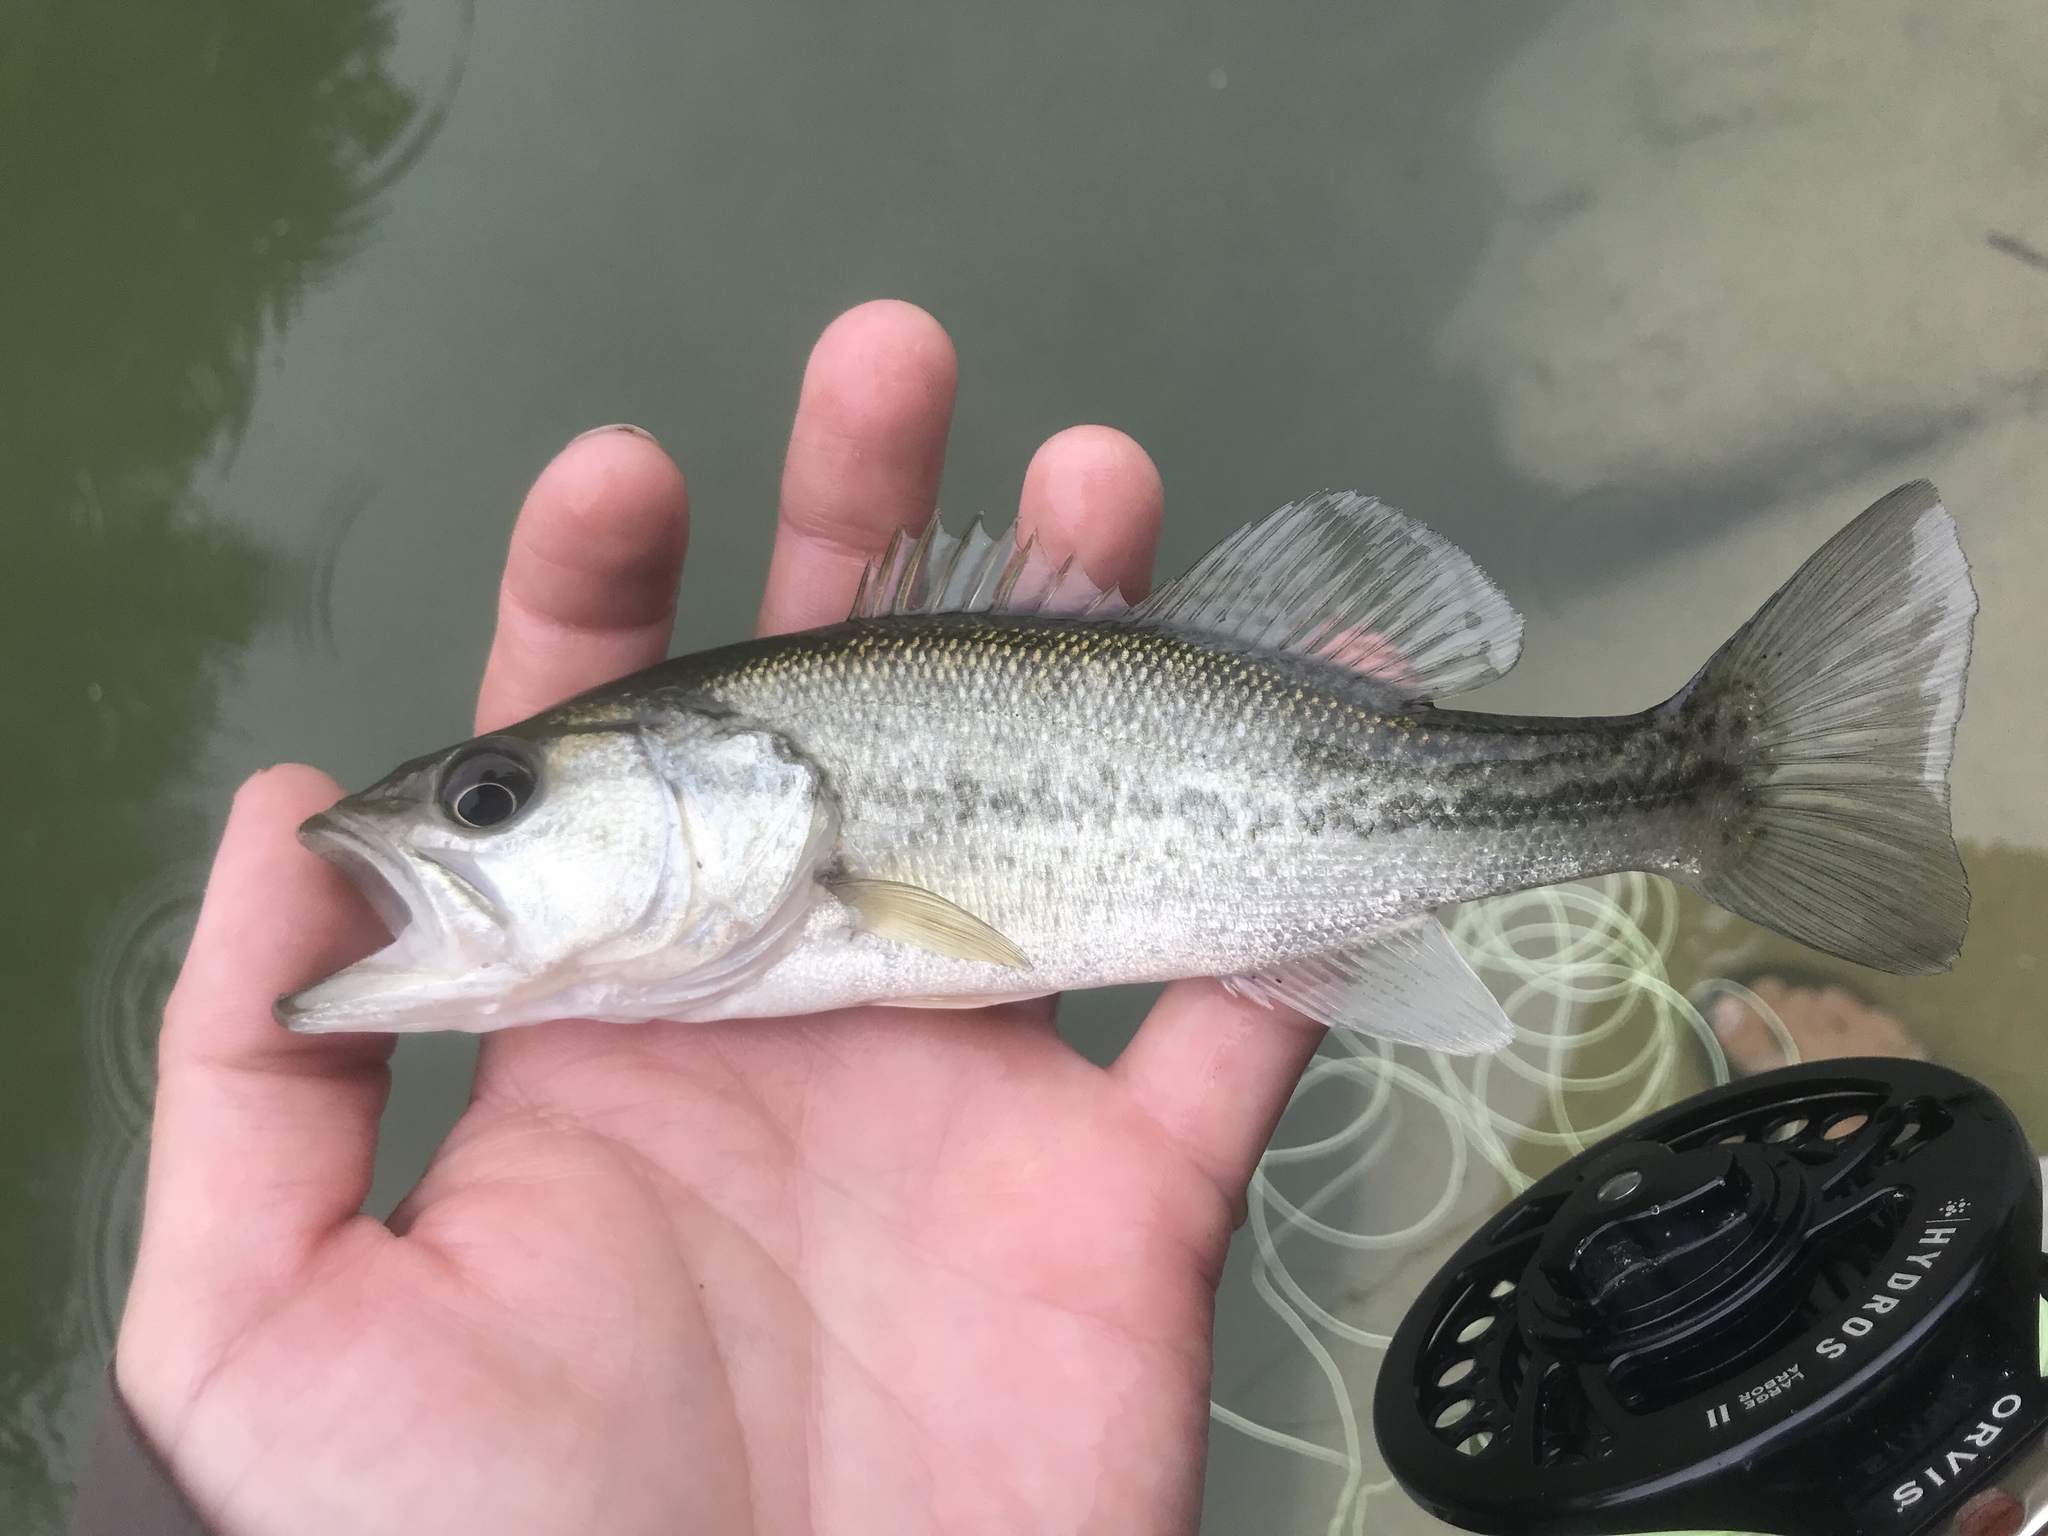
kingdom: Animalia
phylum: Chordata
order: Perciformes
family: Centrarchidae
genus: Micropterus
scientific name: Micropterus
